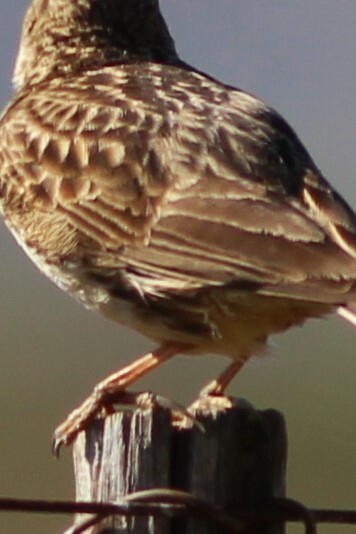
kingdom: Animalia
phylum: Chordata
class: Aves
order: Passeriformes
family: Alaudidae
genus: Galerida
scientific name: Galerida magnirostris
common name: Large-billed lark
